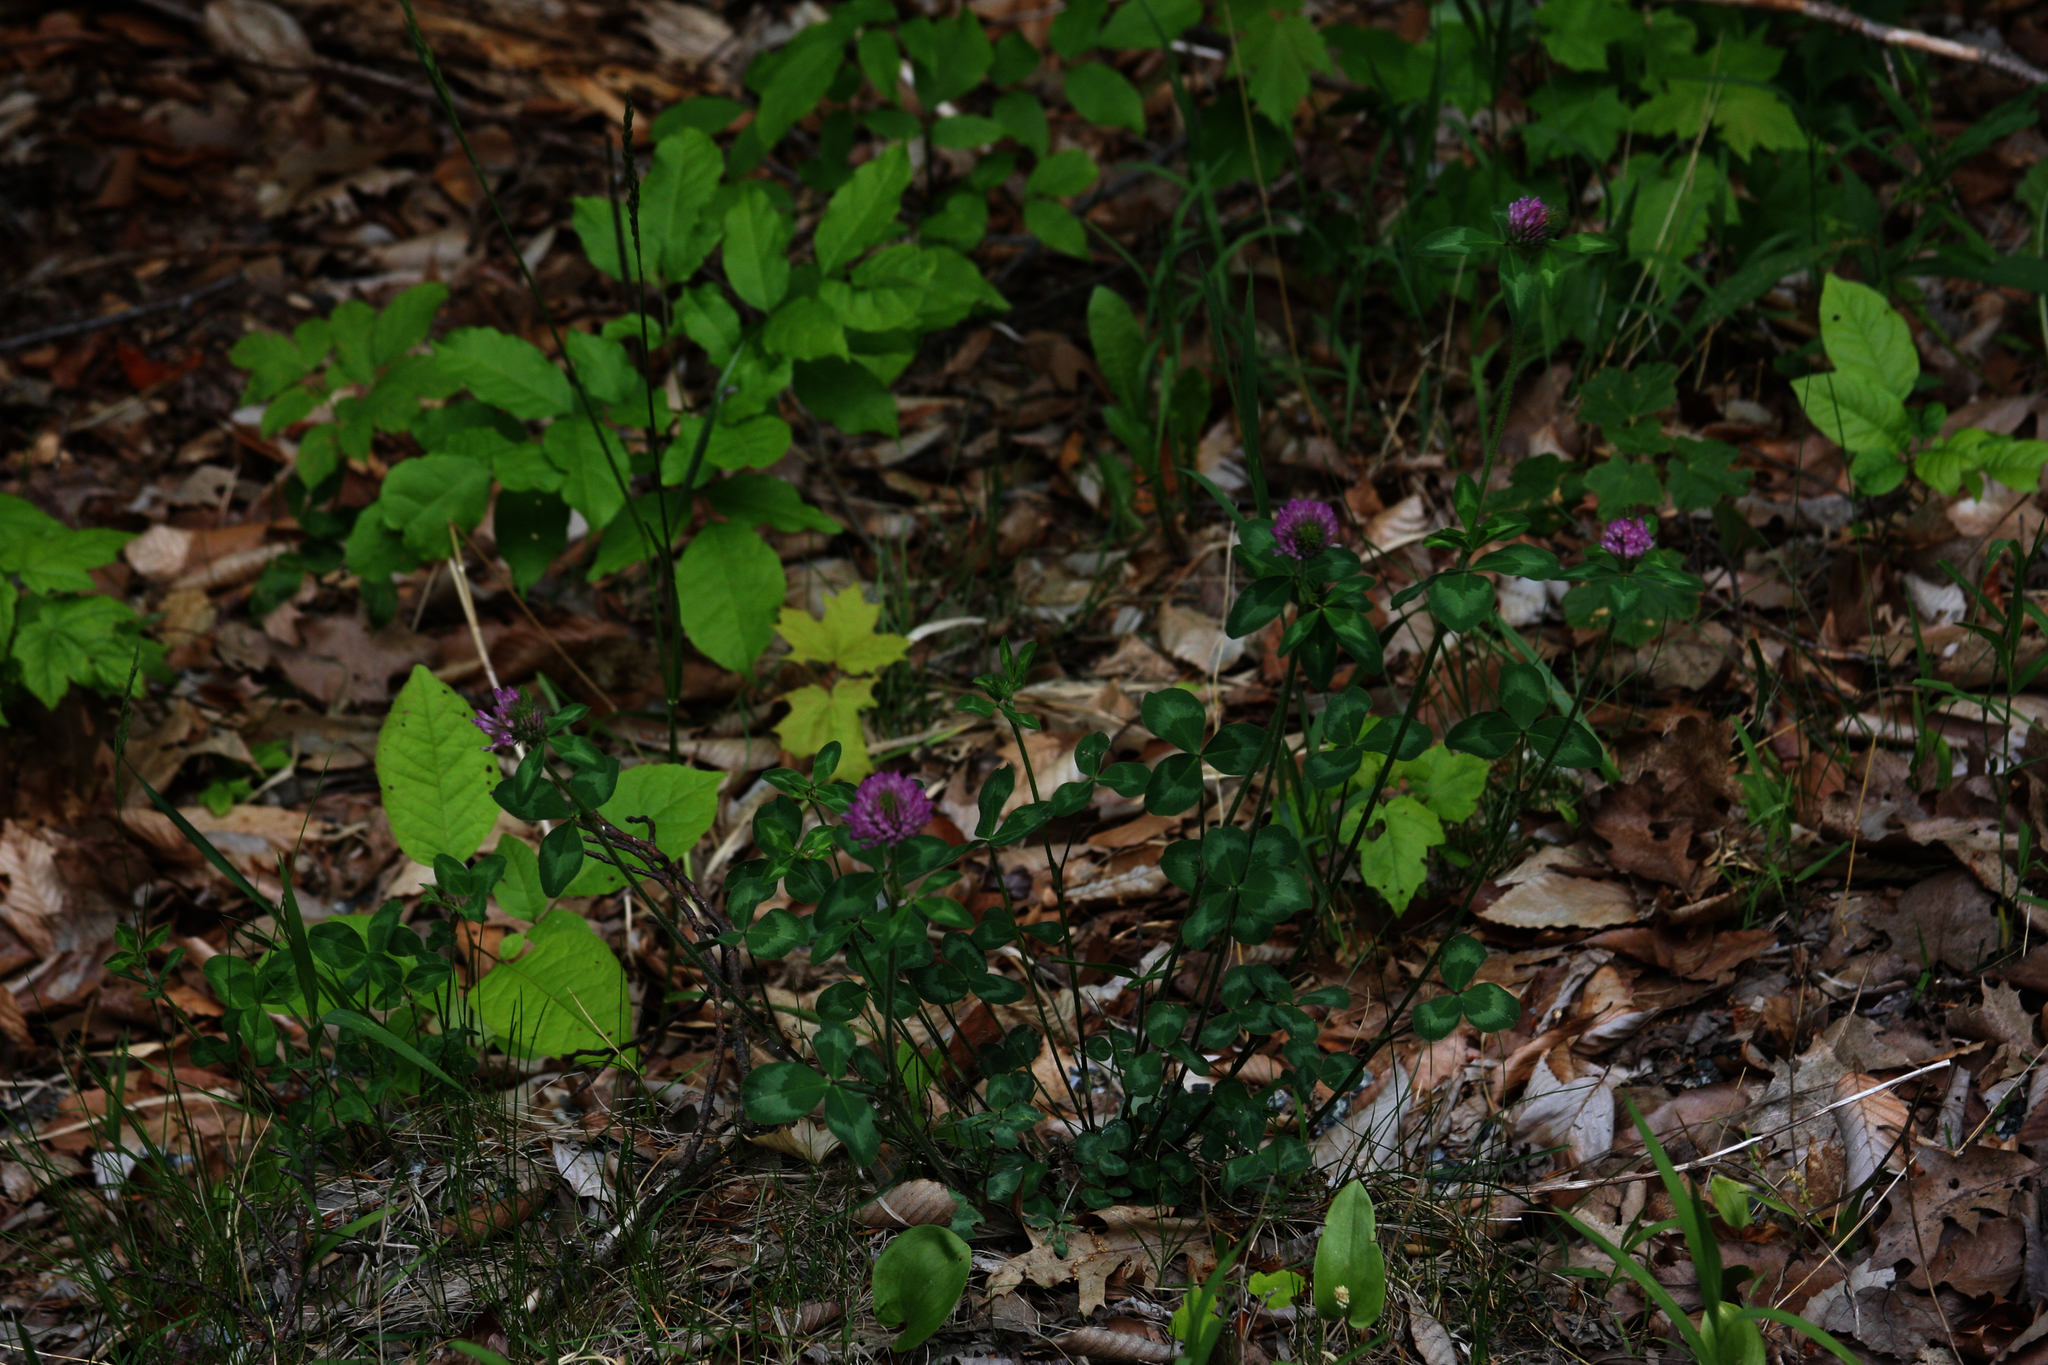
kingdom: Plantae
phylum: Tracheophyta
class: Magnoliopsida
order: Fabales
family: Fabaceae
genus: Trifolium
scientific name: Trifolium pratense
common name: Red clover
